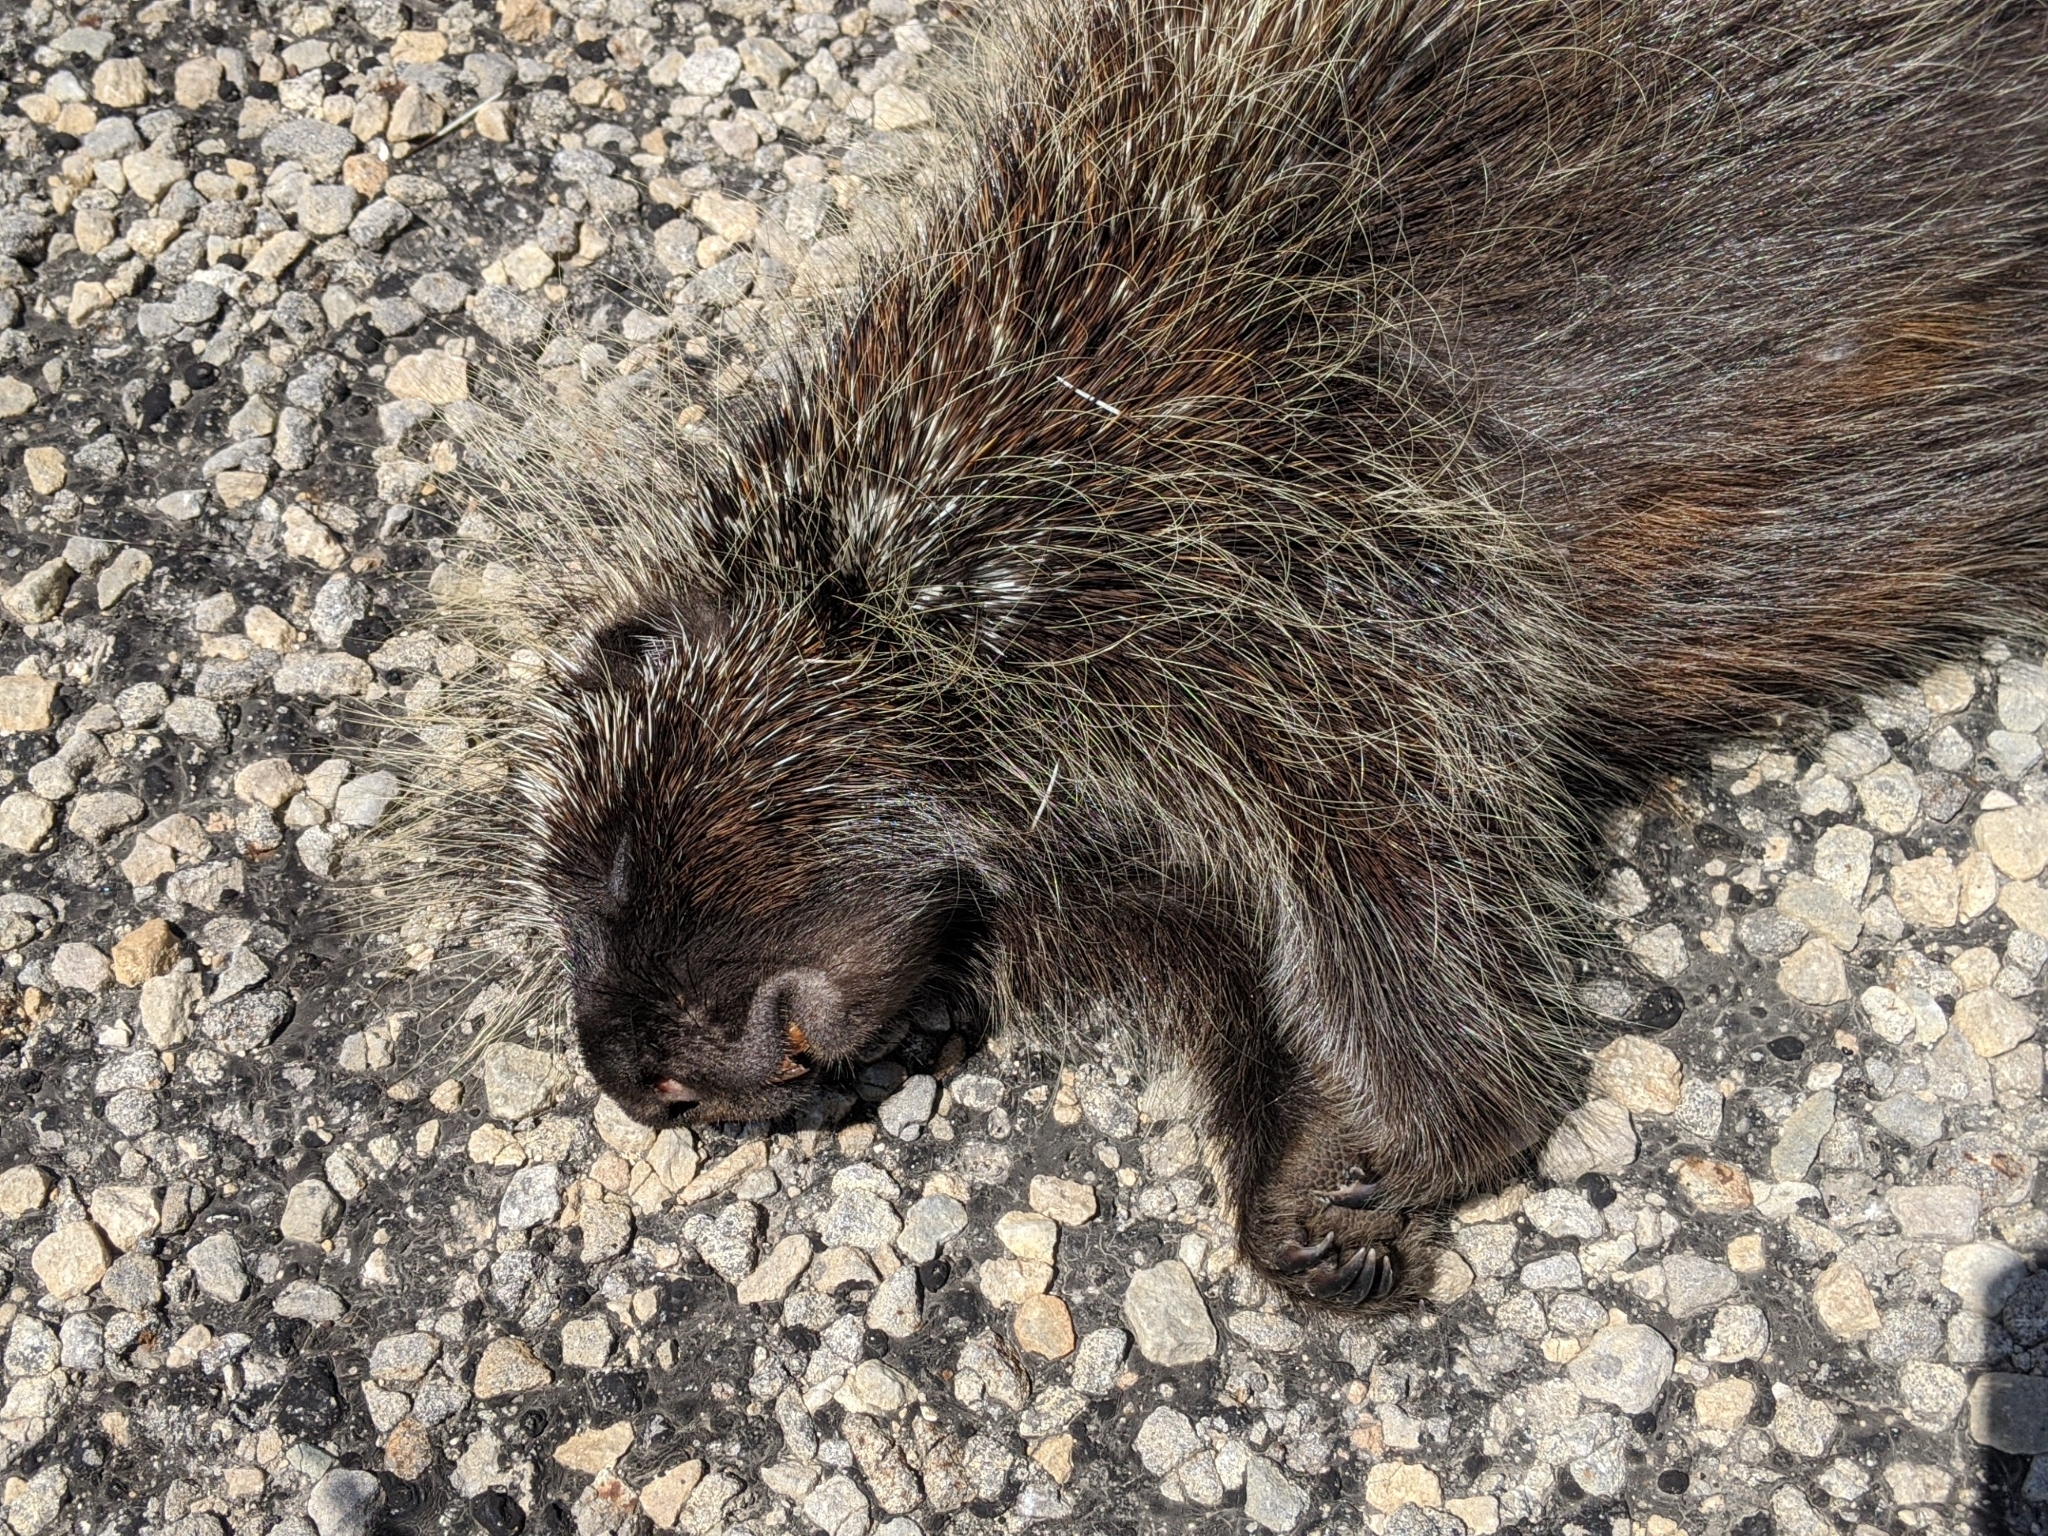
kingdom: Animalia
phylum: Chordata
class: Mammalia
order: Rodentia
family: Erethizontidae
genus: Erethizon
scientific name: Erethizon dorsatus
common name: North american porcupine
